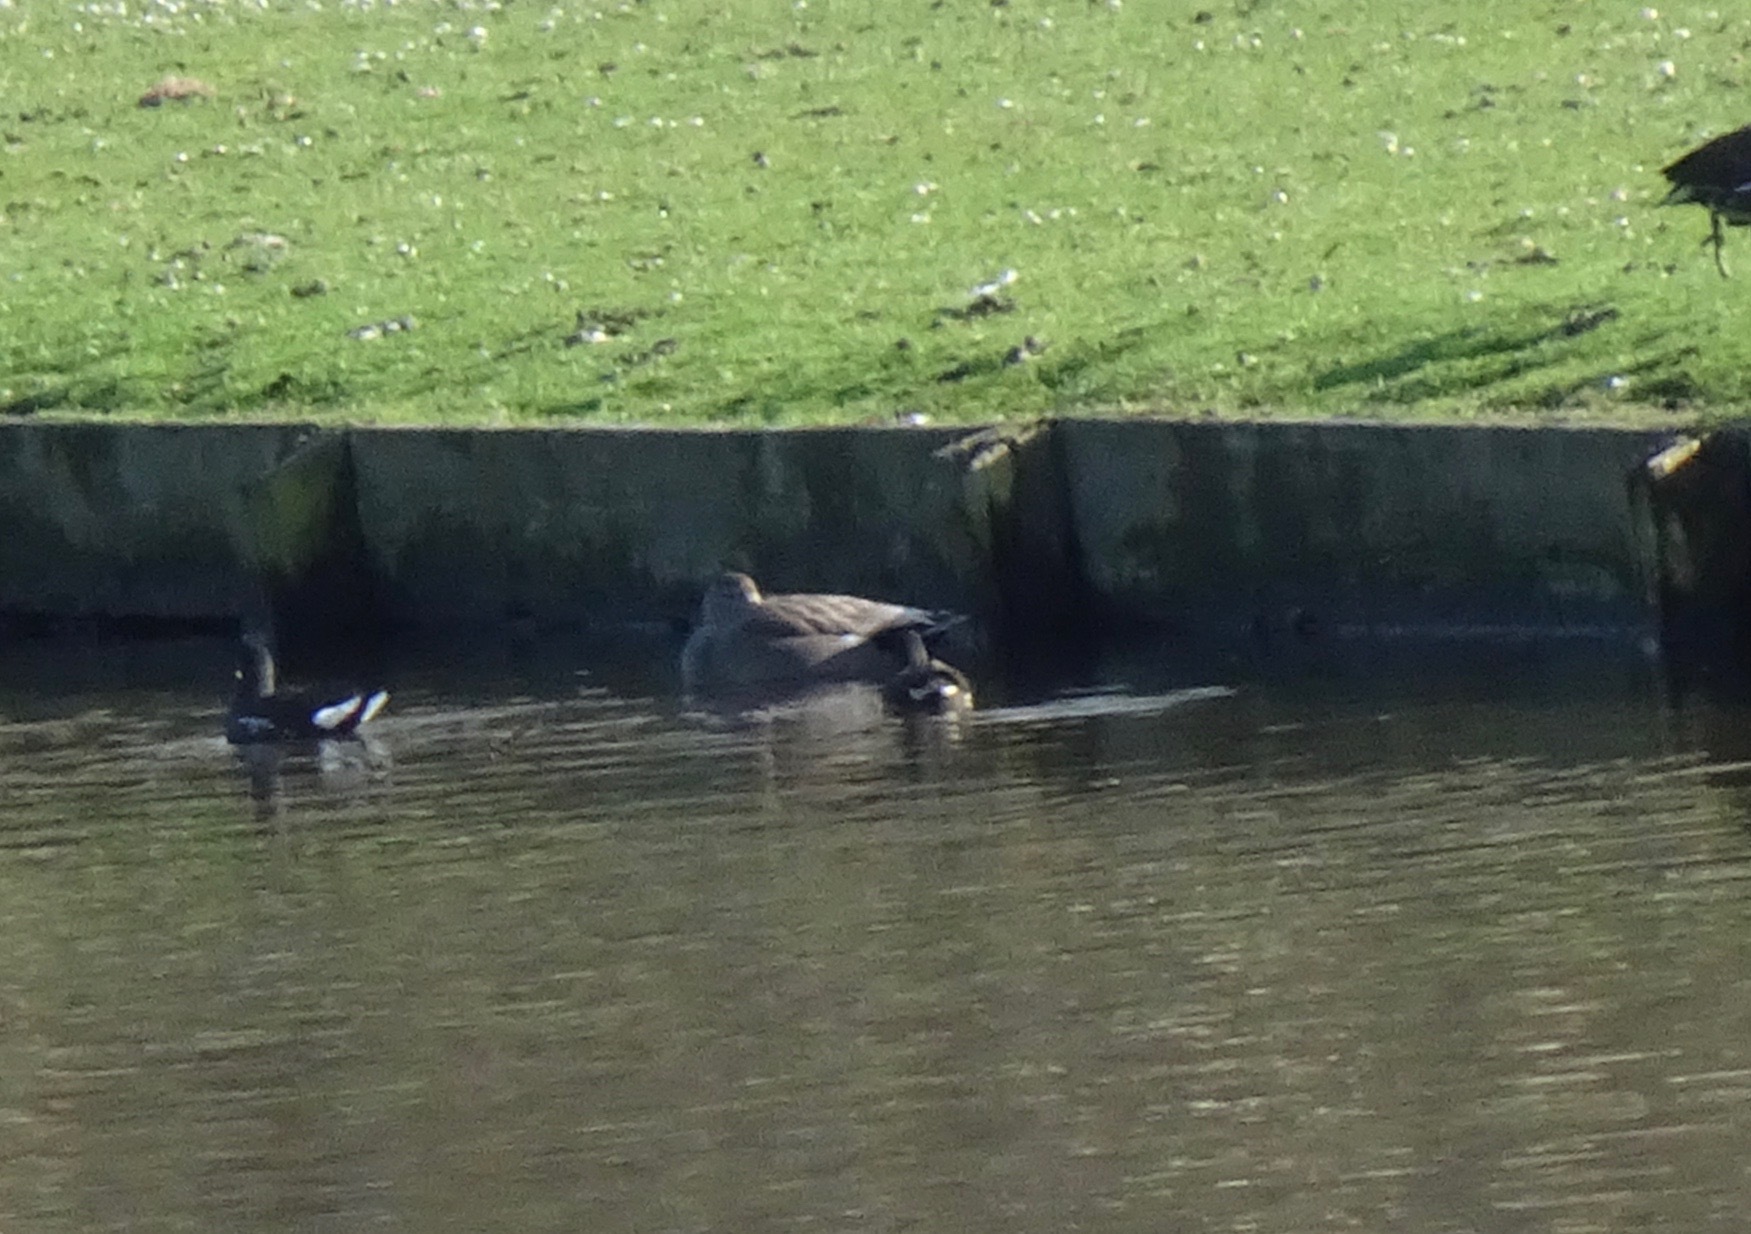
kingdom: Animalia
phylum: Chordata
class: Aves
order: Anseriformes
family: Anatidae
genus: Mareca
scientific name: Mareca strepera
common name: Gadwall
